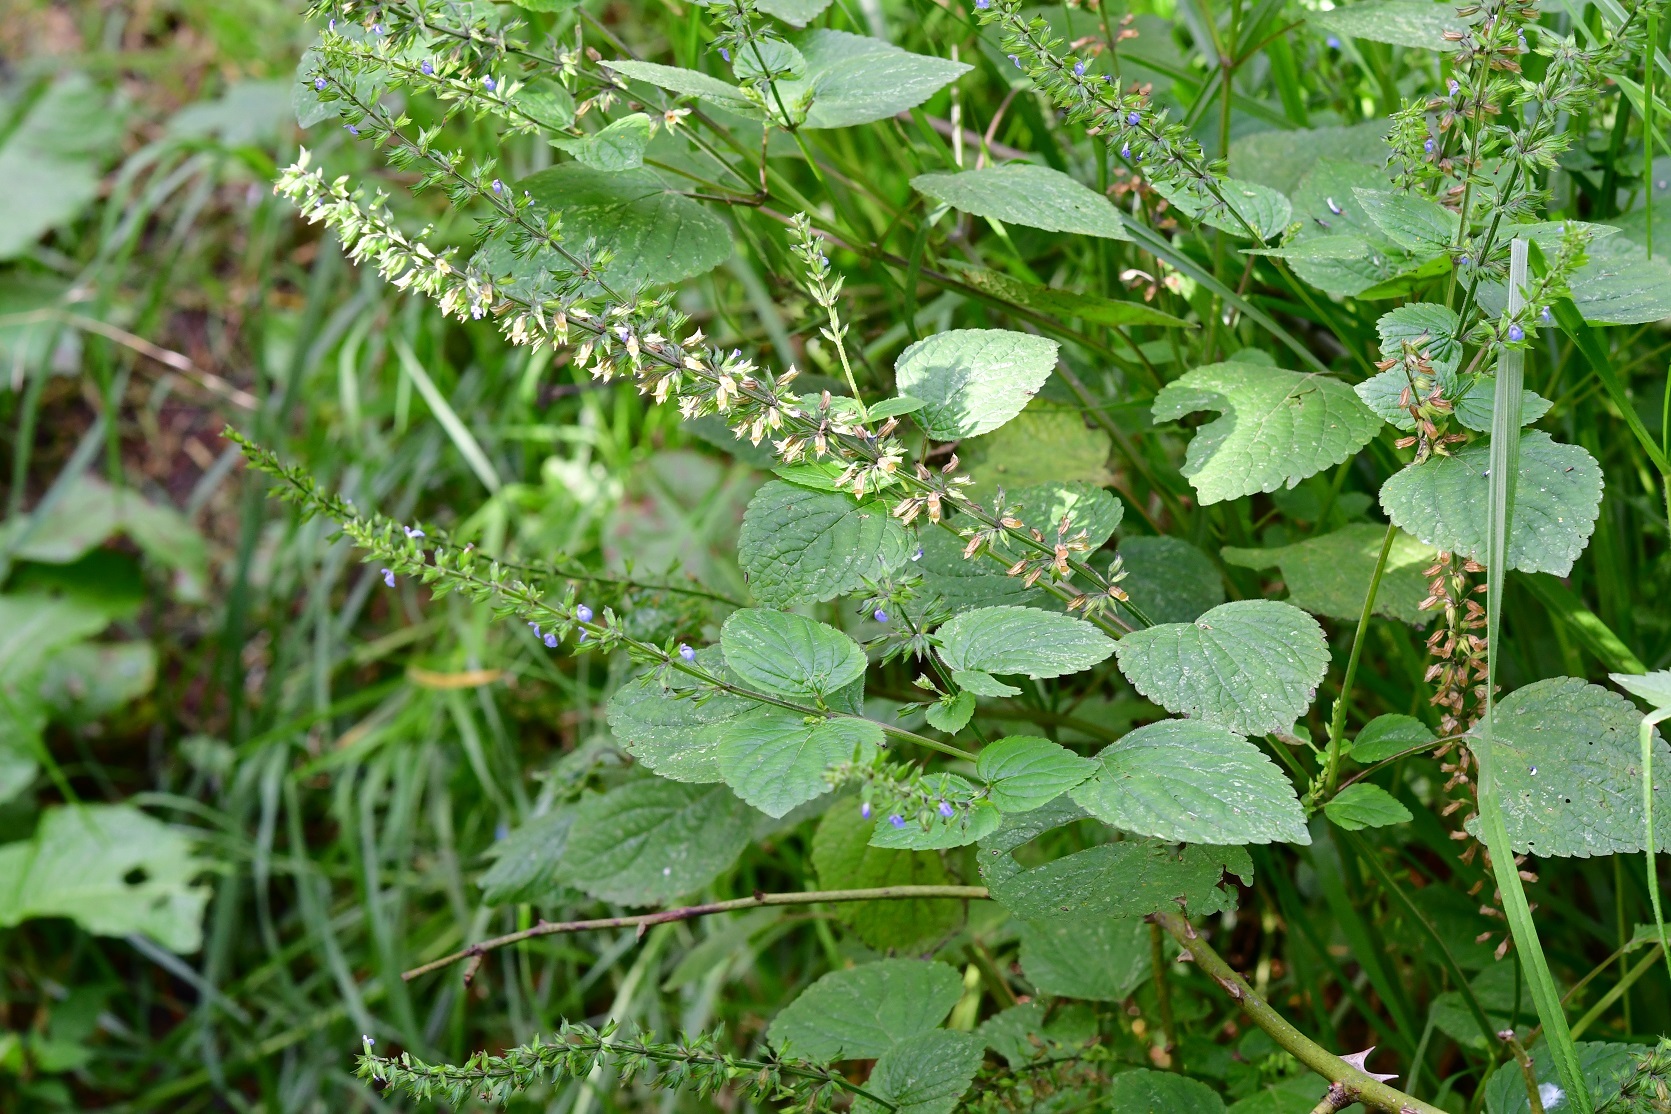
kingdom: Plantae
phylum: Tracheophyta
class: Magnoliopsida
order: Lamiales
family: Lamiaceae
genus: Salvia
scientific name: Salvia tiliifolia
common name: Lindenleaf sage
